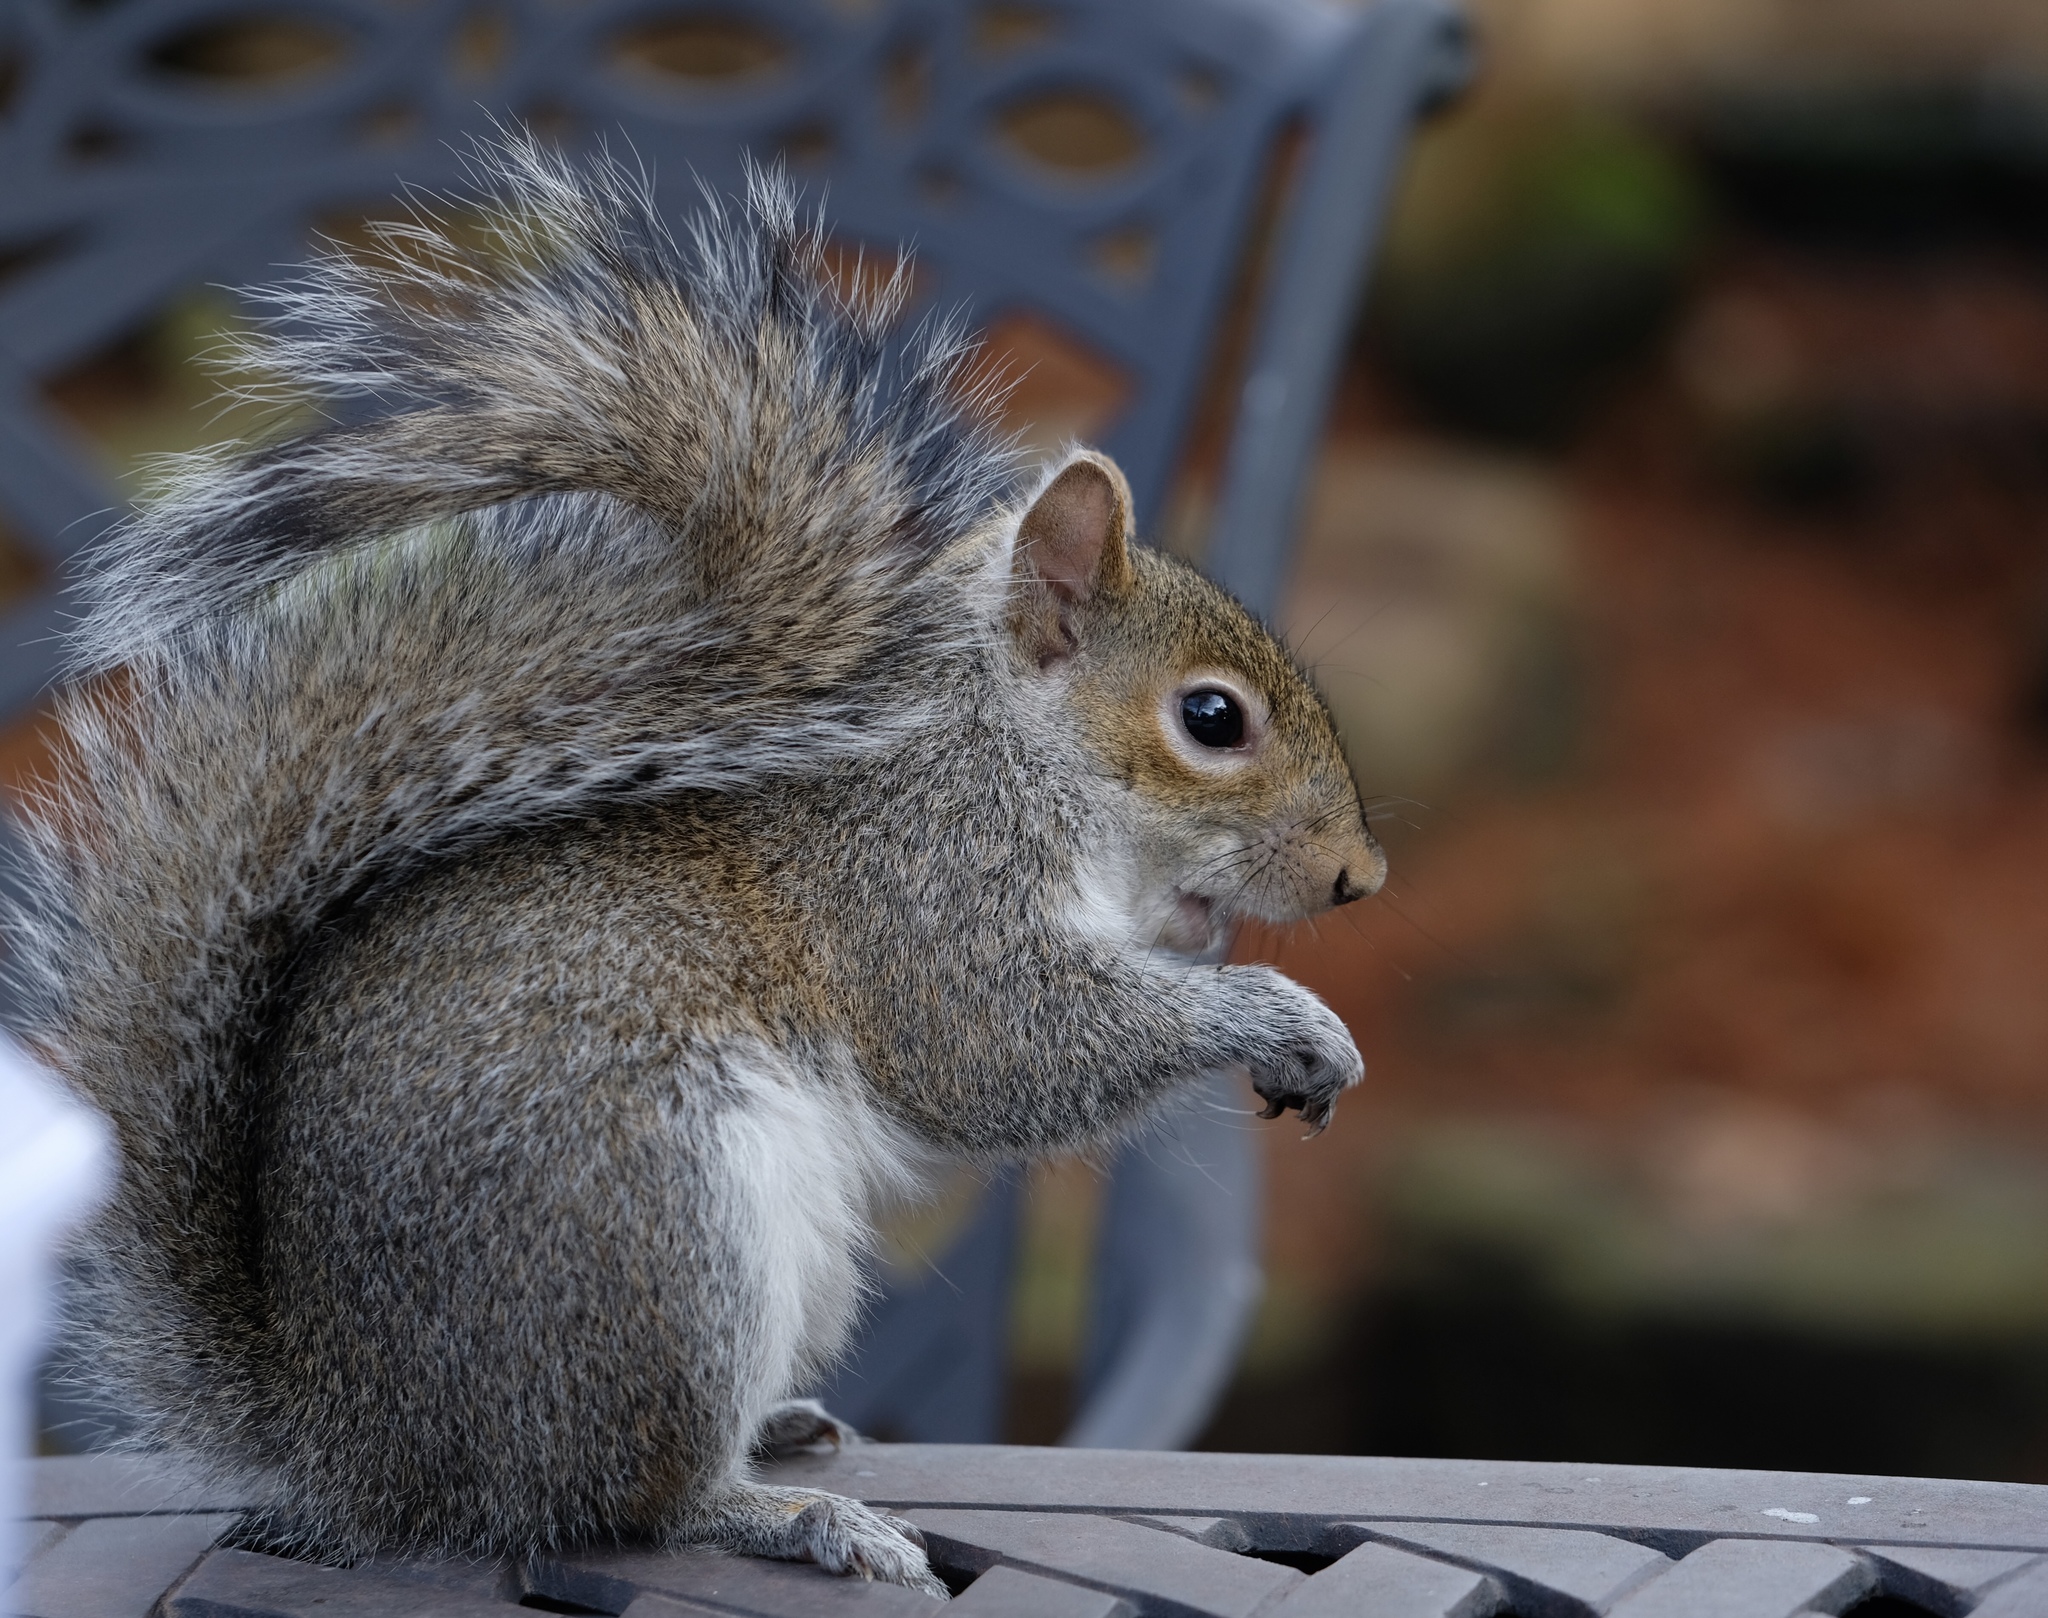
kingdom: Animalia
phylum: Chordata
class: Mammalia
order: Rodentia
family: Sciuridae
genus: Sciurus
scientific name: Sciurus carolinensis
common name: Eastern gray squirrel
